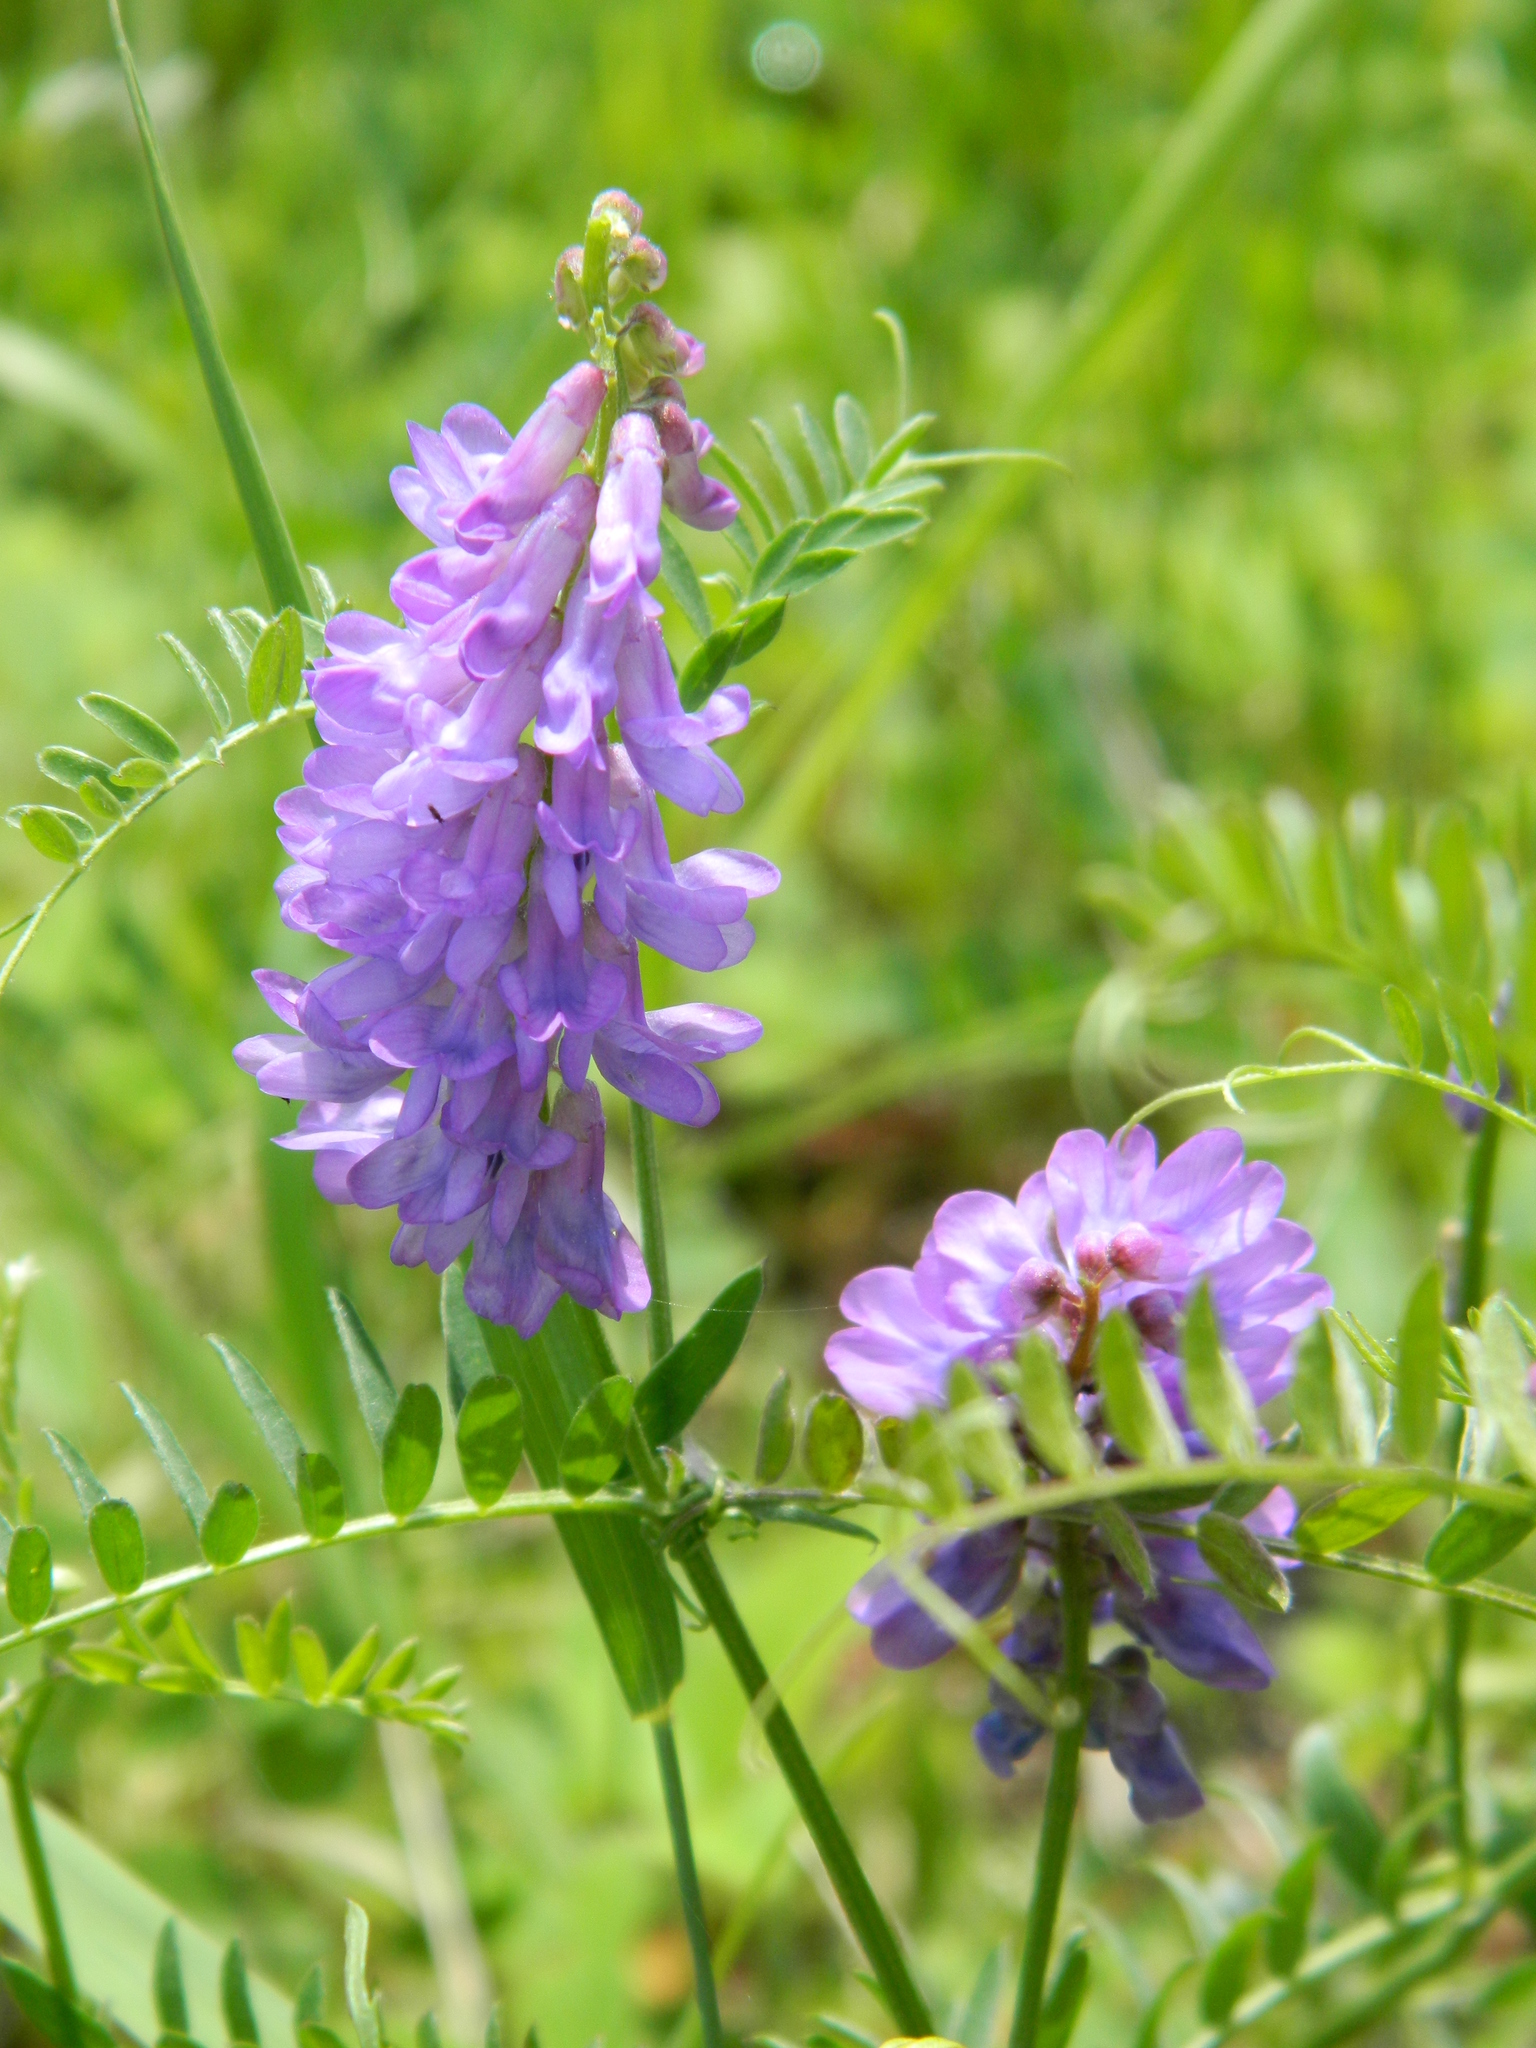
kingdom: Plantae
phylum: Tracheophyta
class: Magnoliopsida
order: Fabales
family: Fabaceae
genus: Vicia
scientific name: Vicia cracca
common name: Bird vetch
